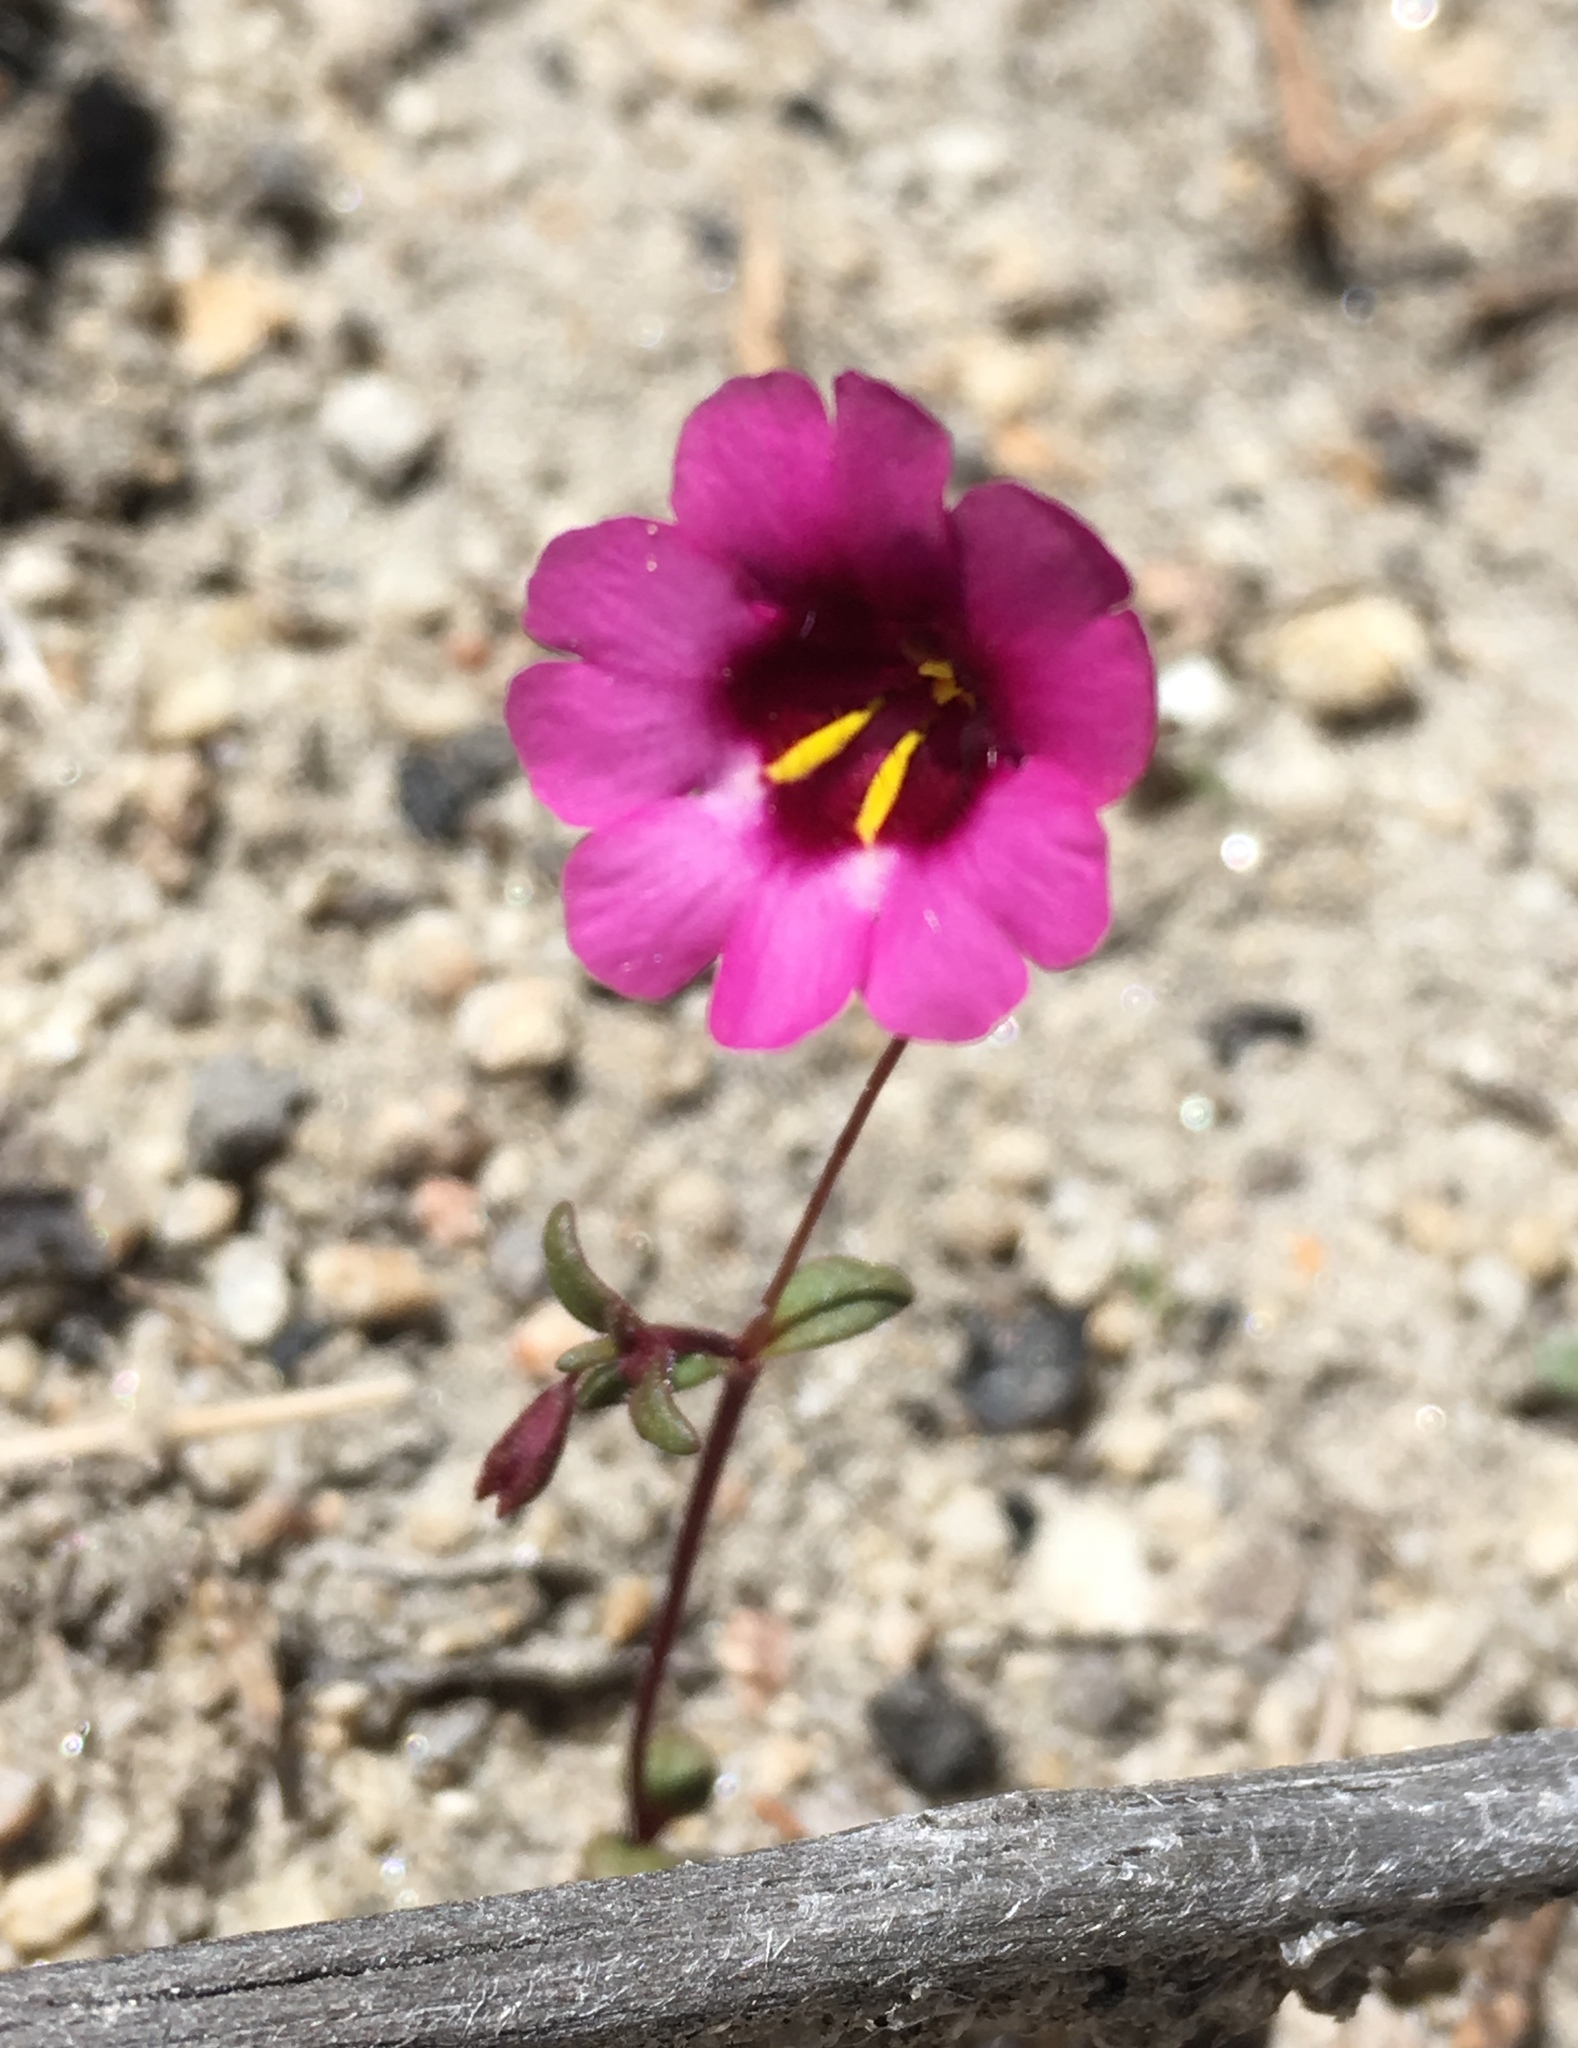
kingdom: Plantae
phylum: Tracheophyta
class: Magnoliopsida
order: Lamiales
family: Phrymaceae
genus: Erythranthe
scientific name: Erythranthe diffusa
